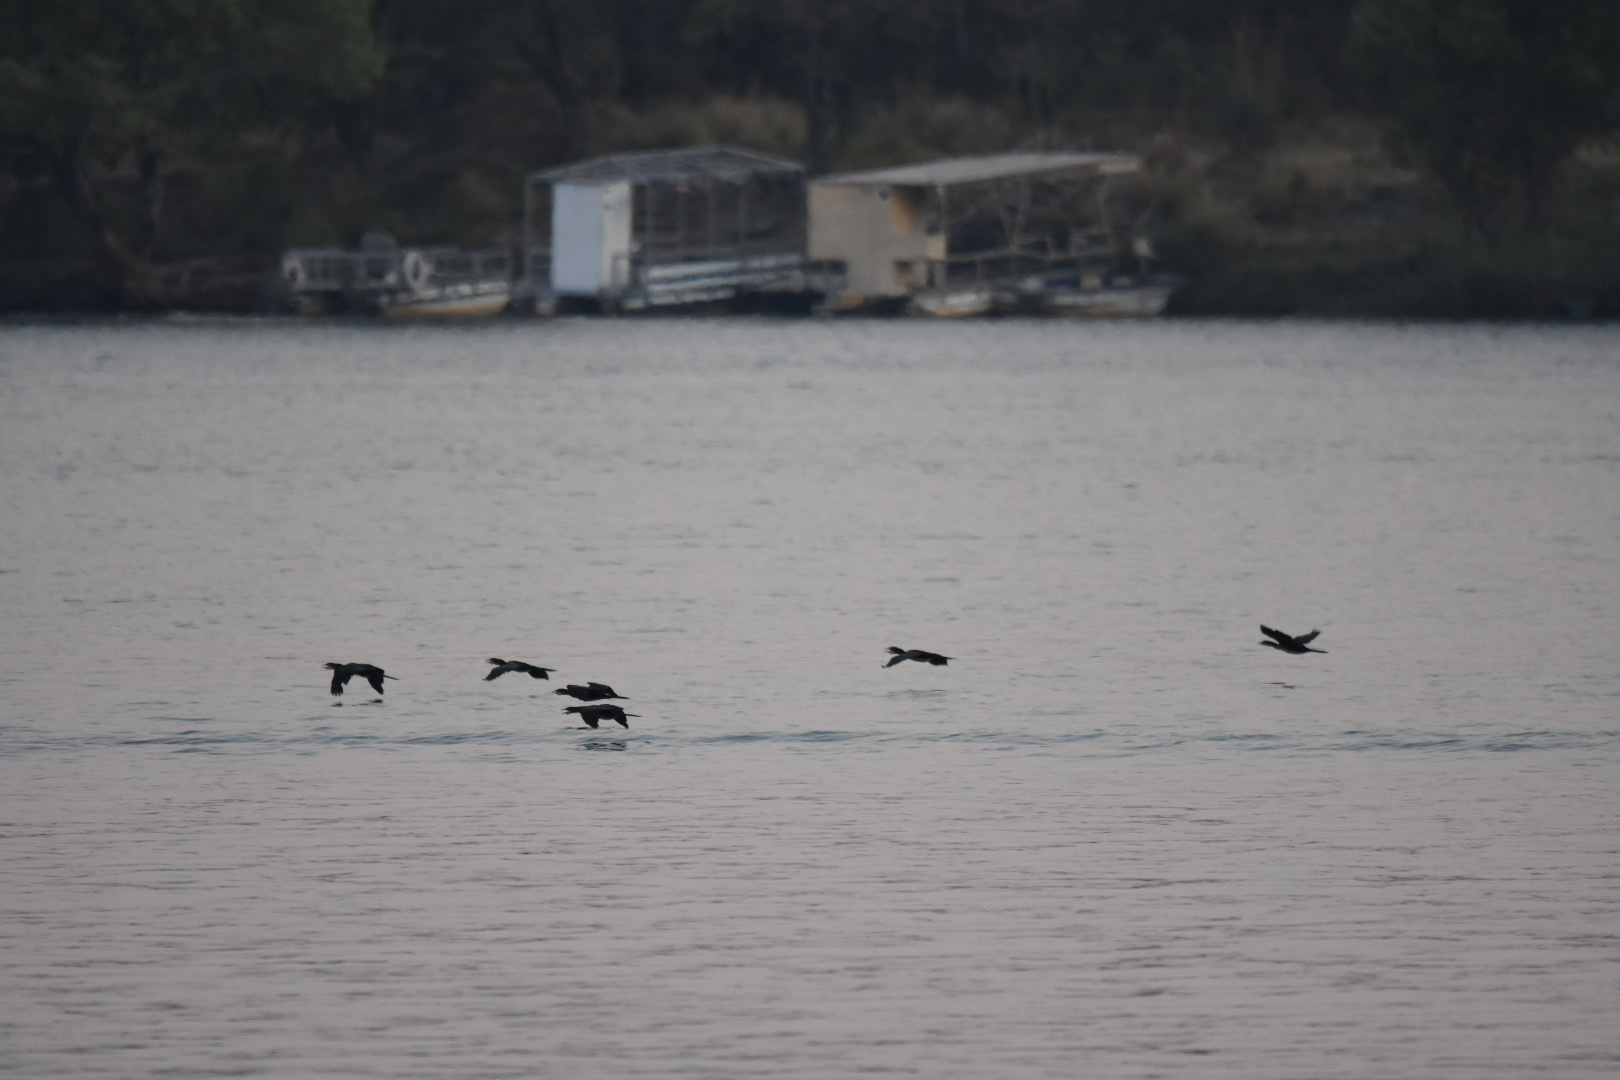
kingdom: Animalia
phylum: Chordata
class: Aves
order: Suliformes
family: Phalacrocoracidae
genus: Microcarbo
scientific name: Microcarbo africanus
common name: Long-tailed cormorant
